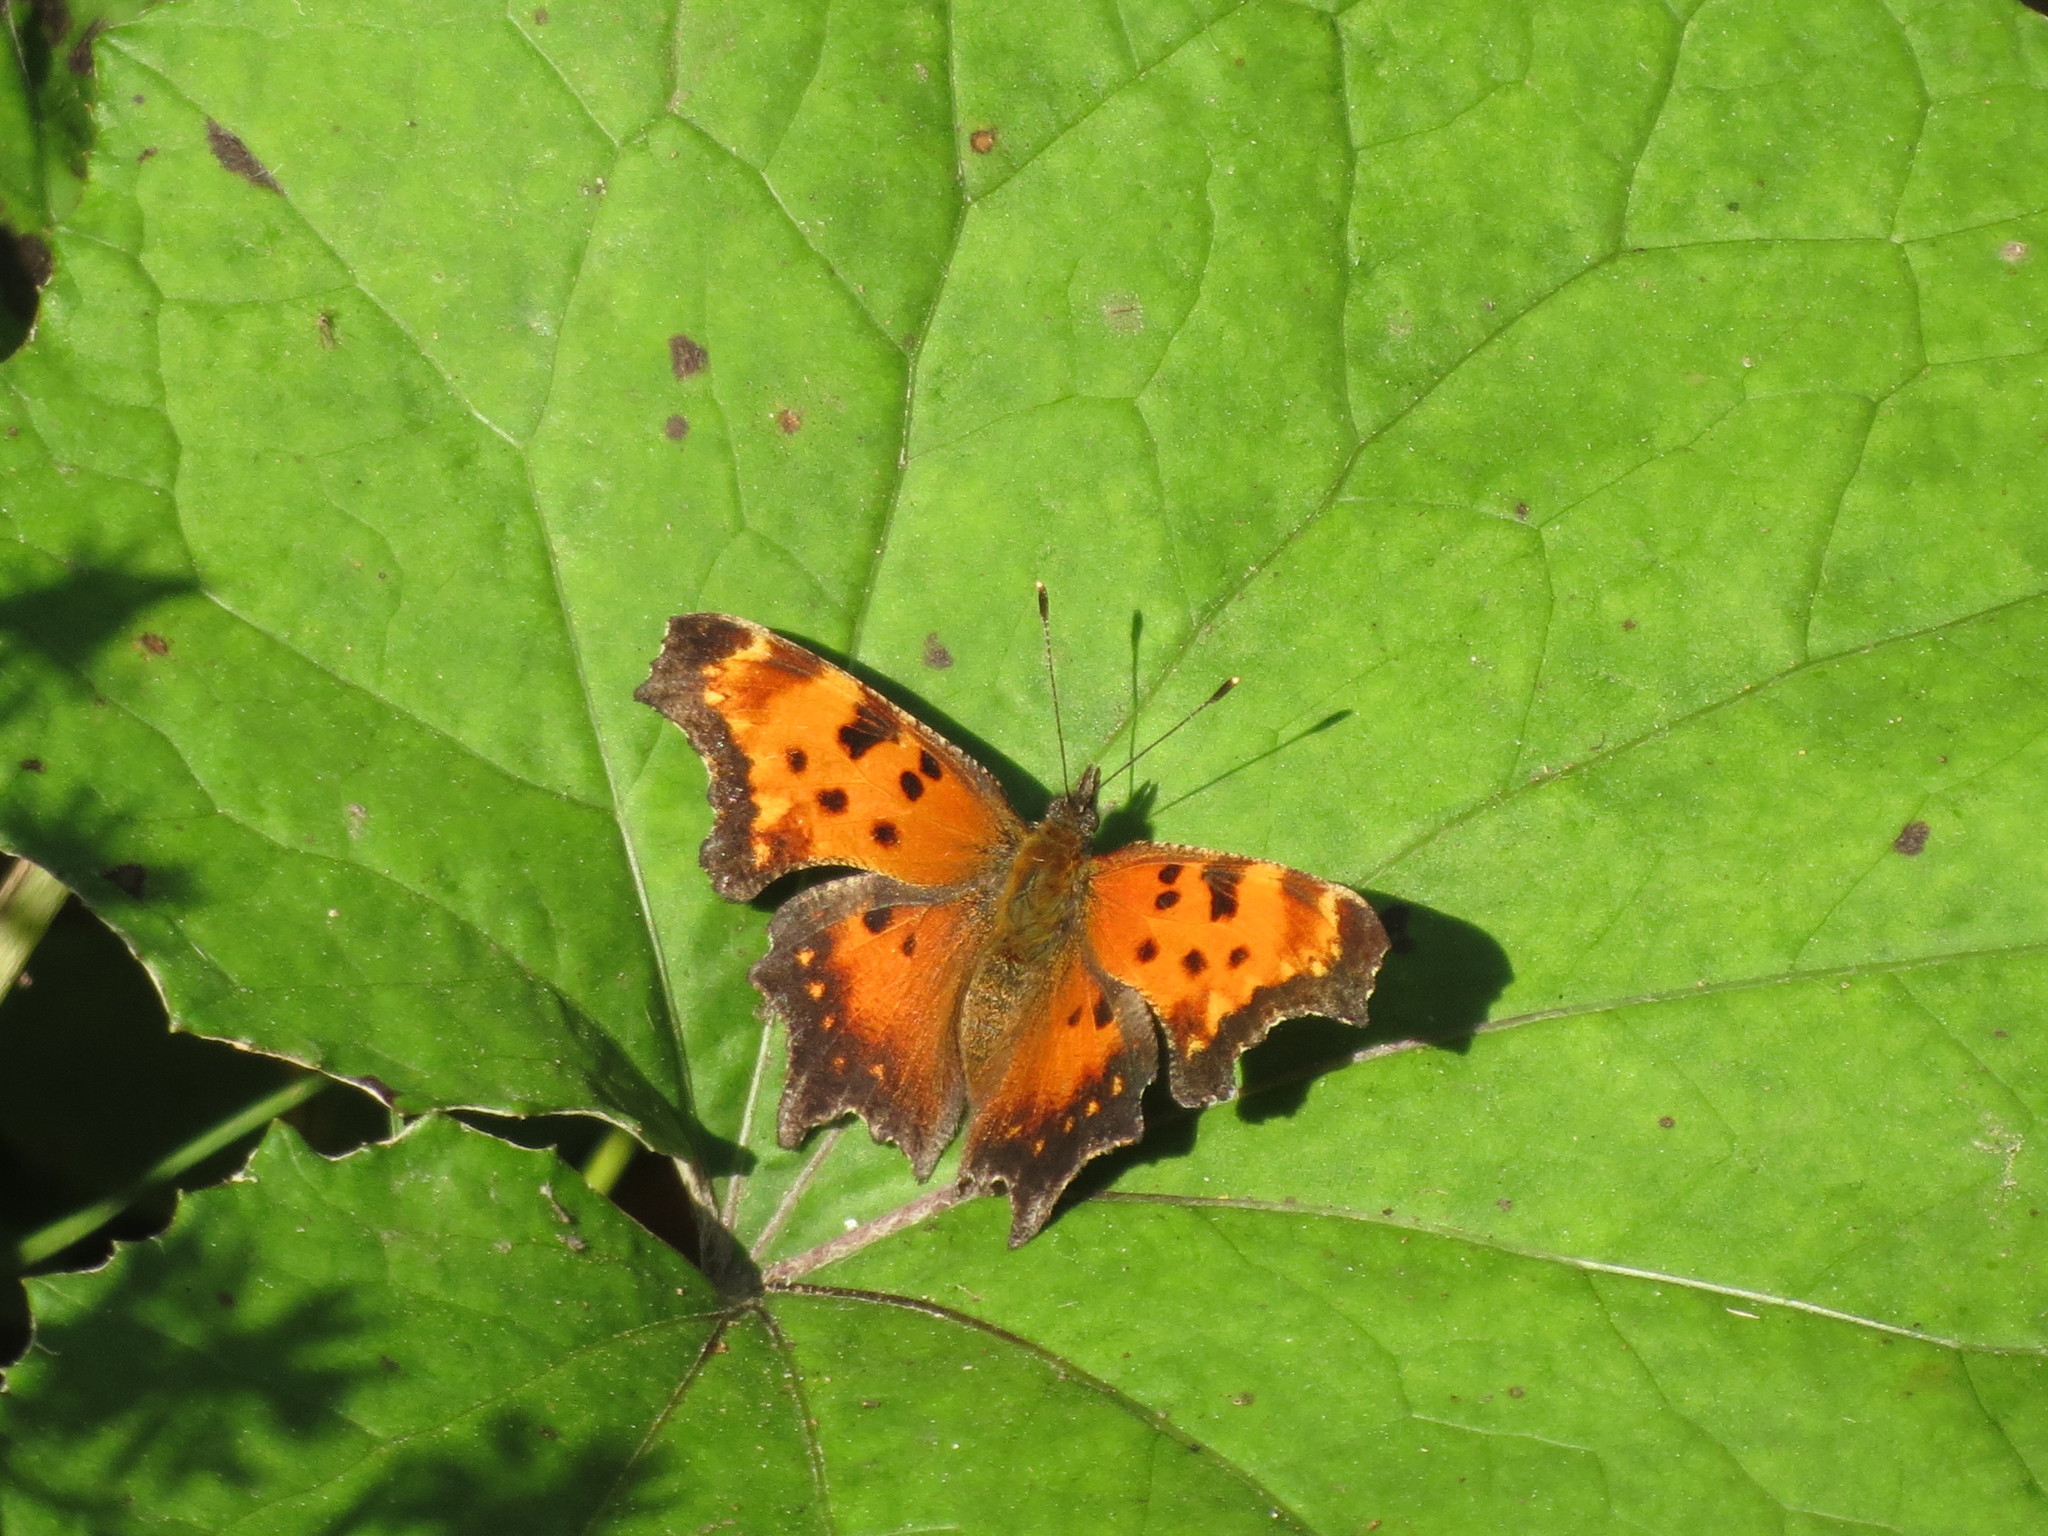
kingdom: Animalia
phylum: Arthropoda
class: Insecta
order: Lepidoptera
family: Nymphalidae
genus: Polygonia
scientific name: Polygonia progne
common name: Gray comma
